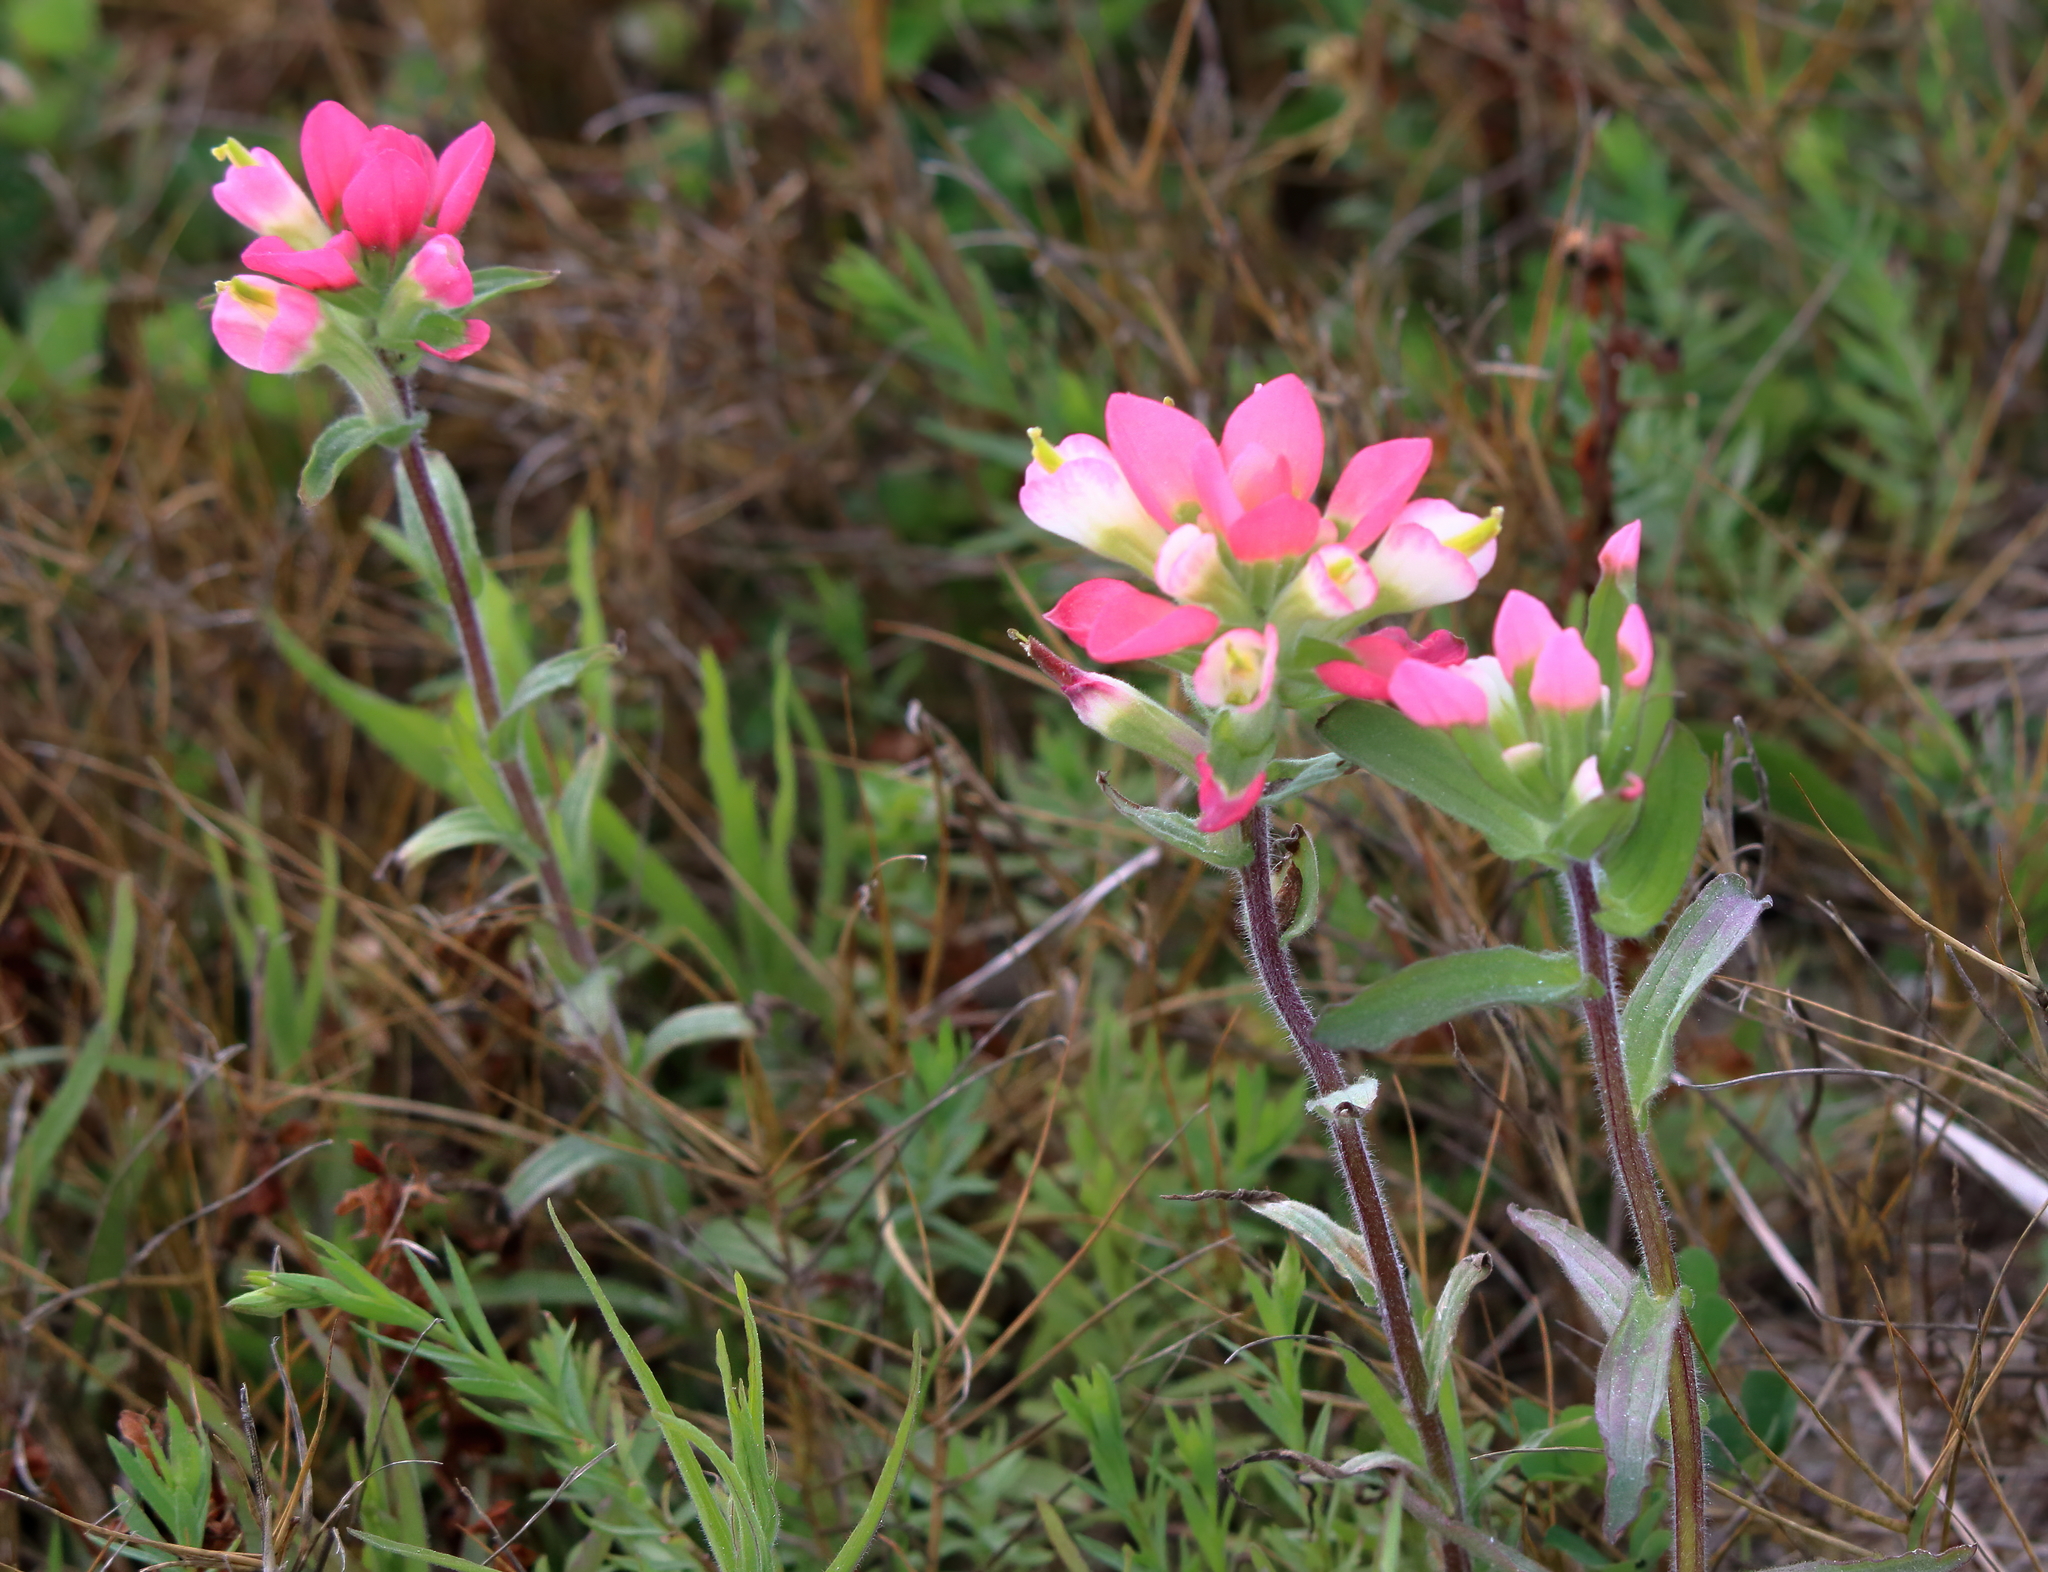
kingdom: Plantae
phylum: Tracheophyta
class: Magnoliopsida
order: Lamiales
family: Orobanchaceae
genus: Castilleja
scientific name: Castilleja indivisa
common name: Texas paintbrush
